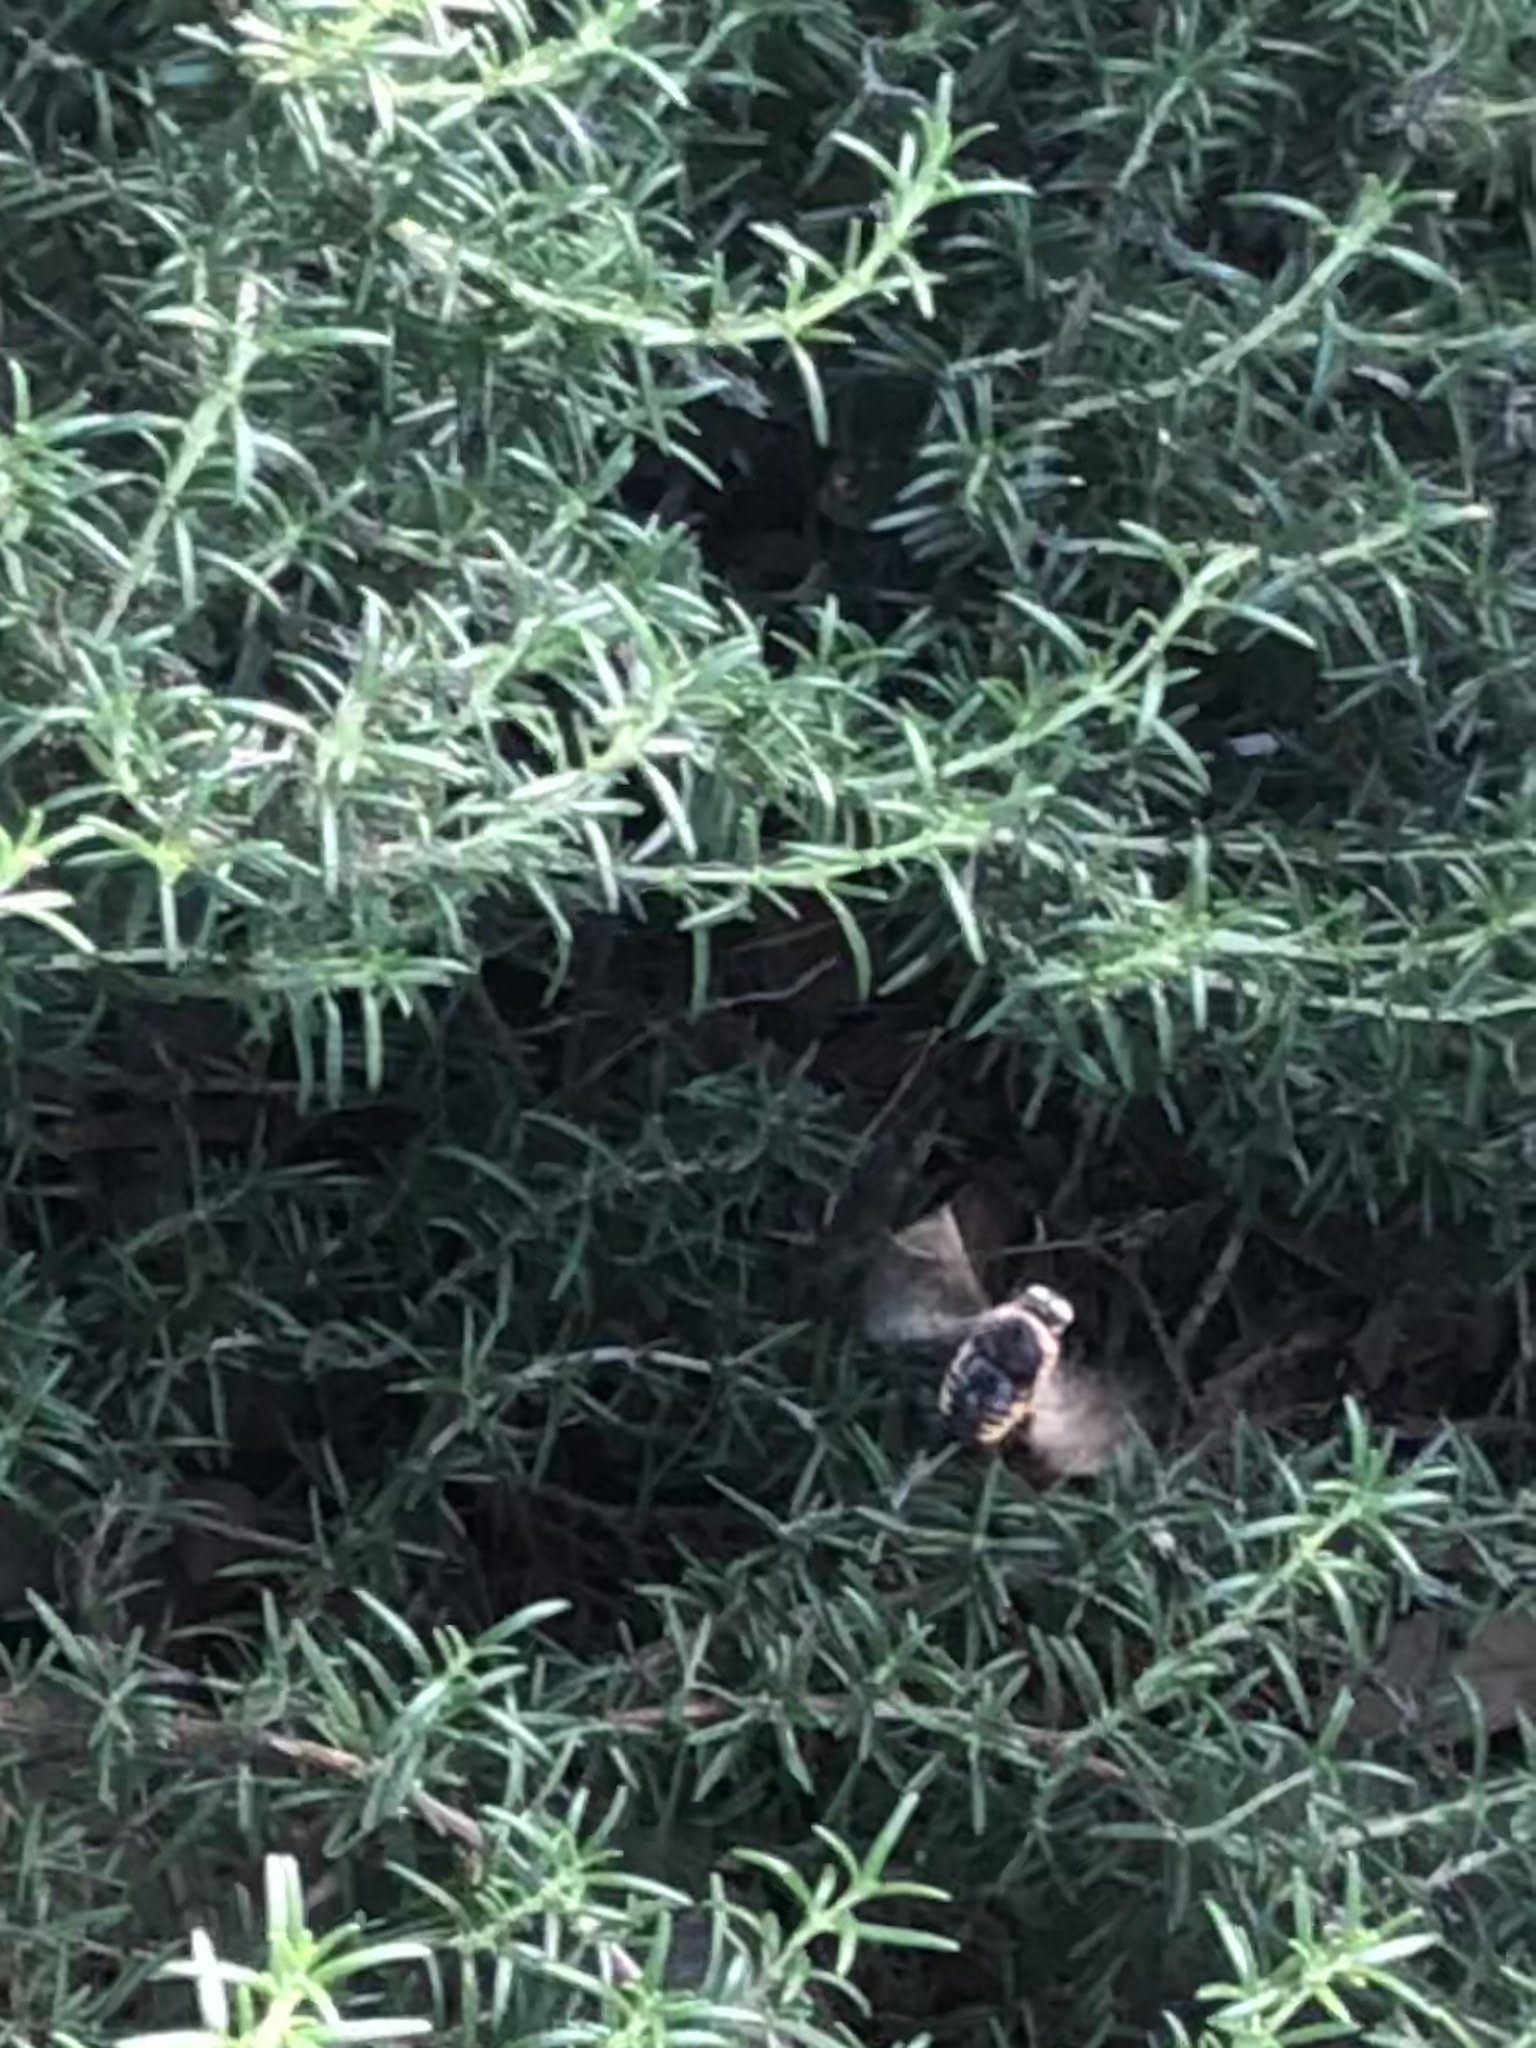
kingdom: Animalia
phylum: Arthropoda
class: Insecta
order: Hymenoptera
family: Apidae
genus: Xylocopa
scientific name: Xylocopa tabaniformis
